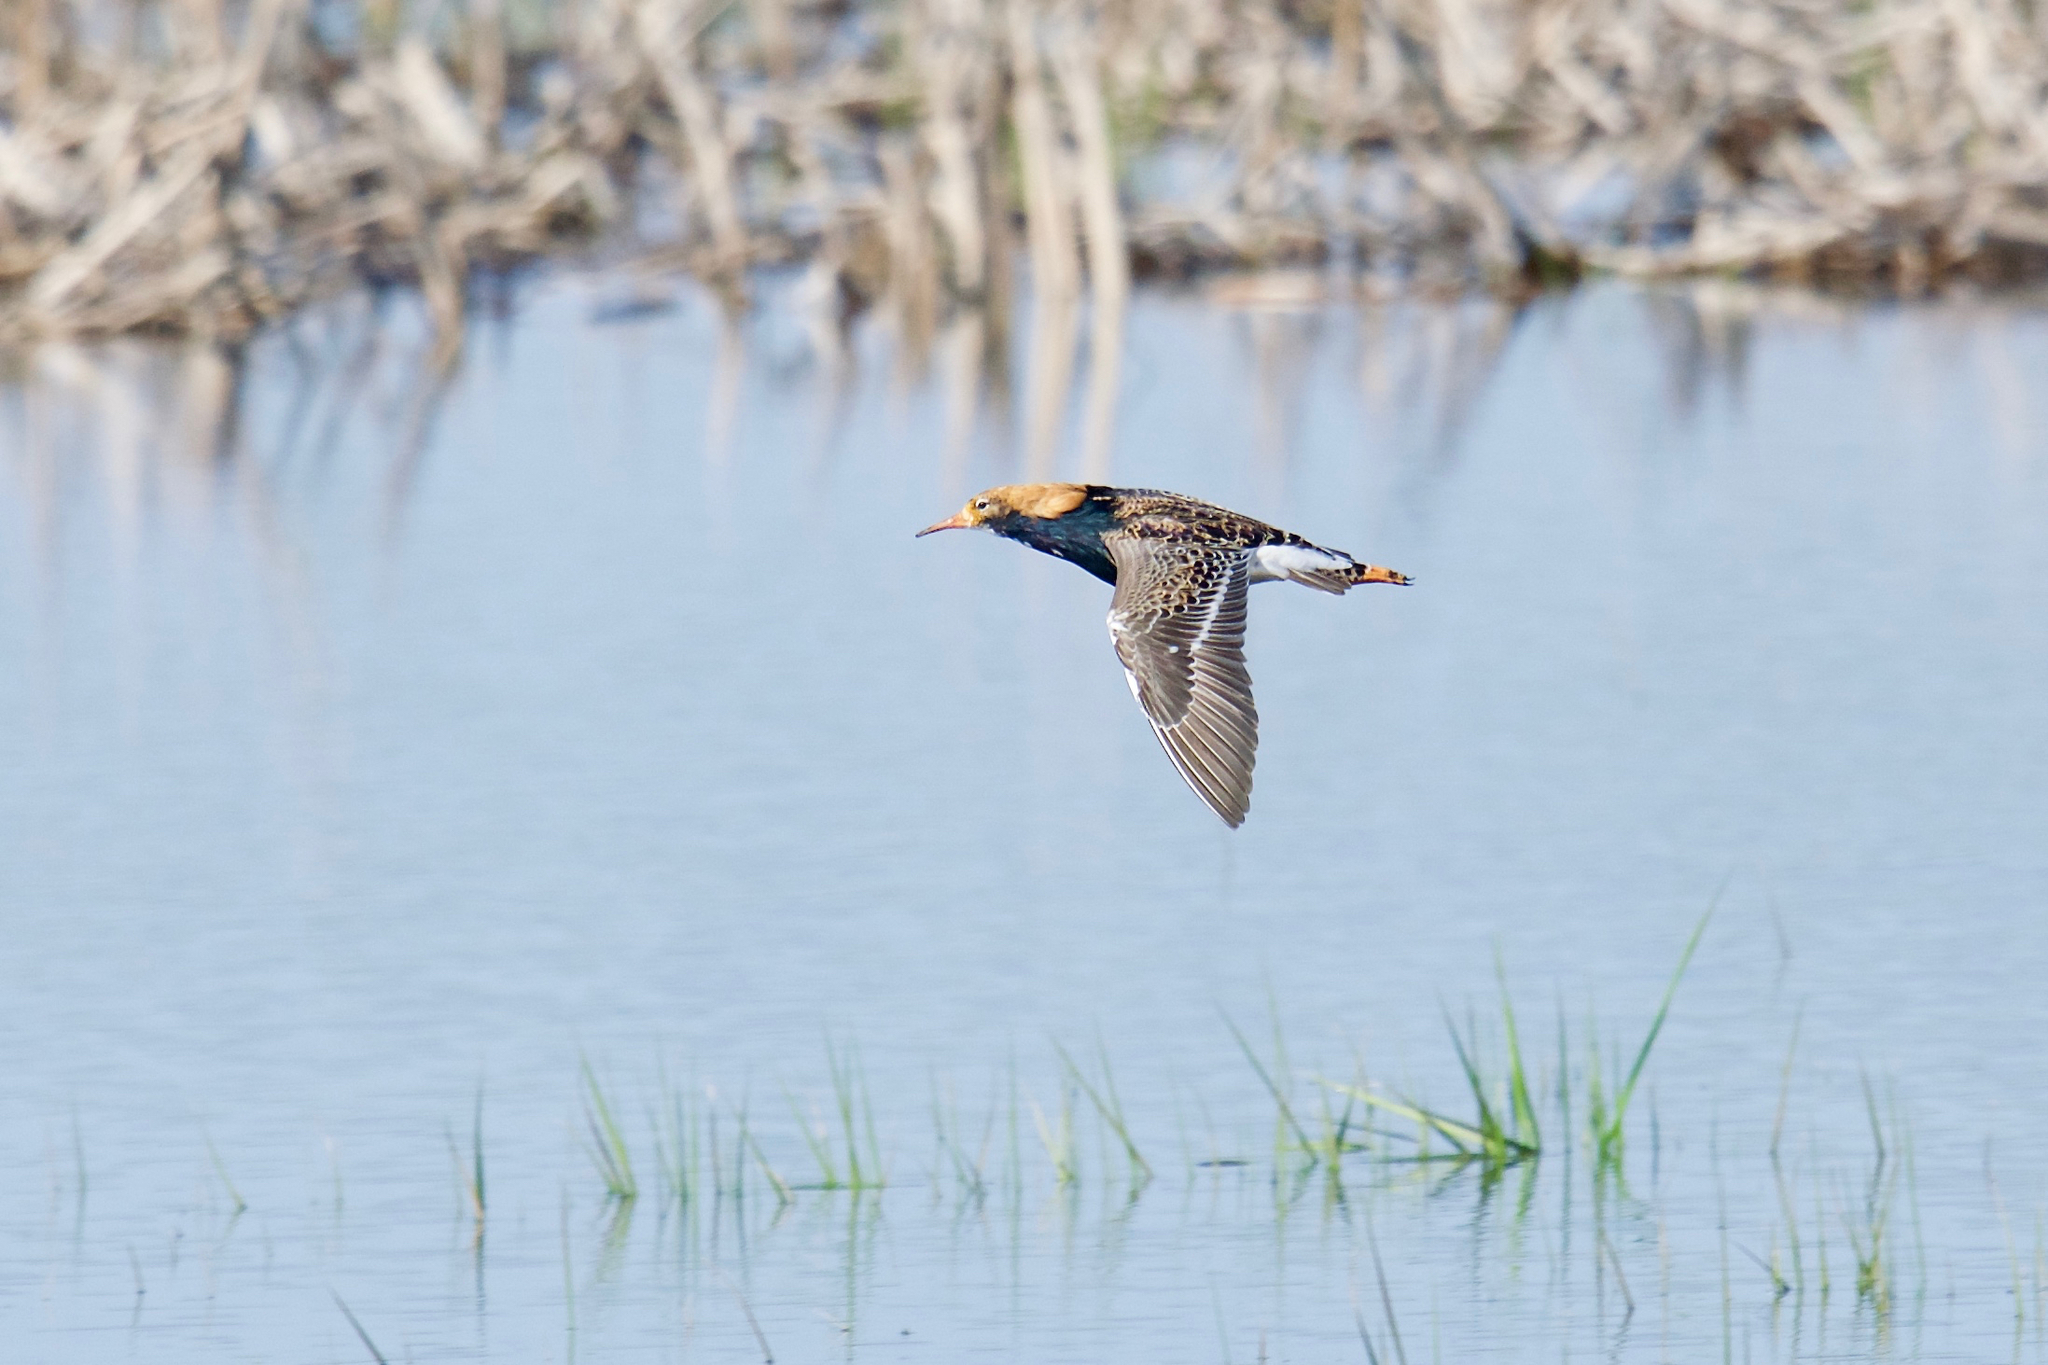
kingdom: Animalia
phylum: Chordata
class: Aves
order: Charadriiformes
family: Scolopacidae
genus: Calidris
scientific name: Calidris pugnax
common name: Ruff
